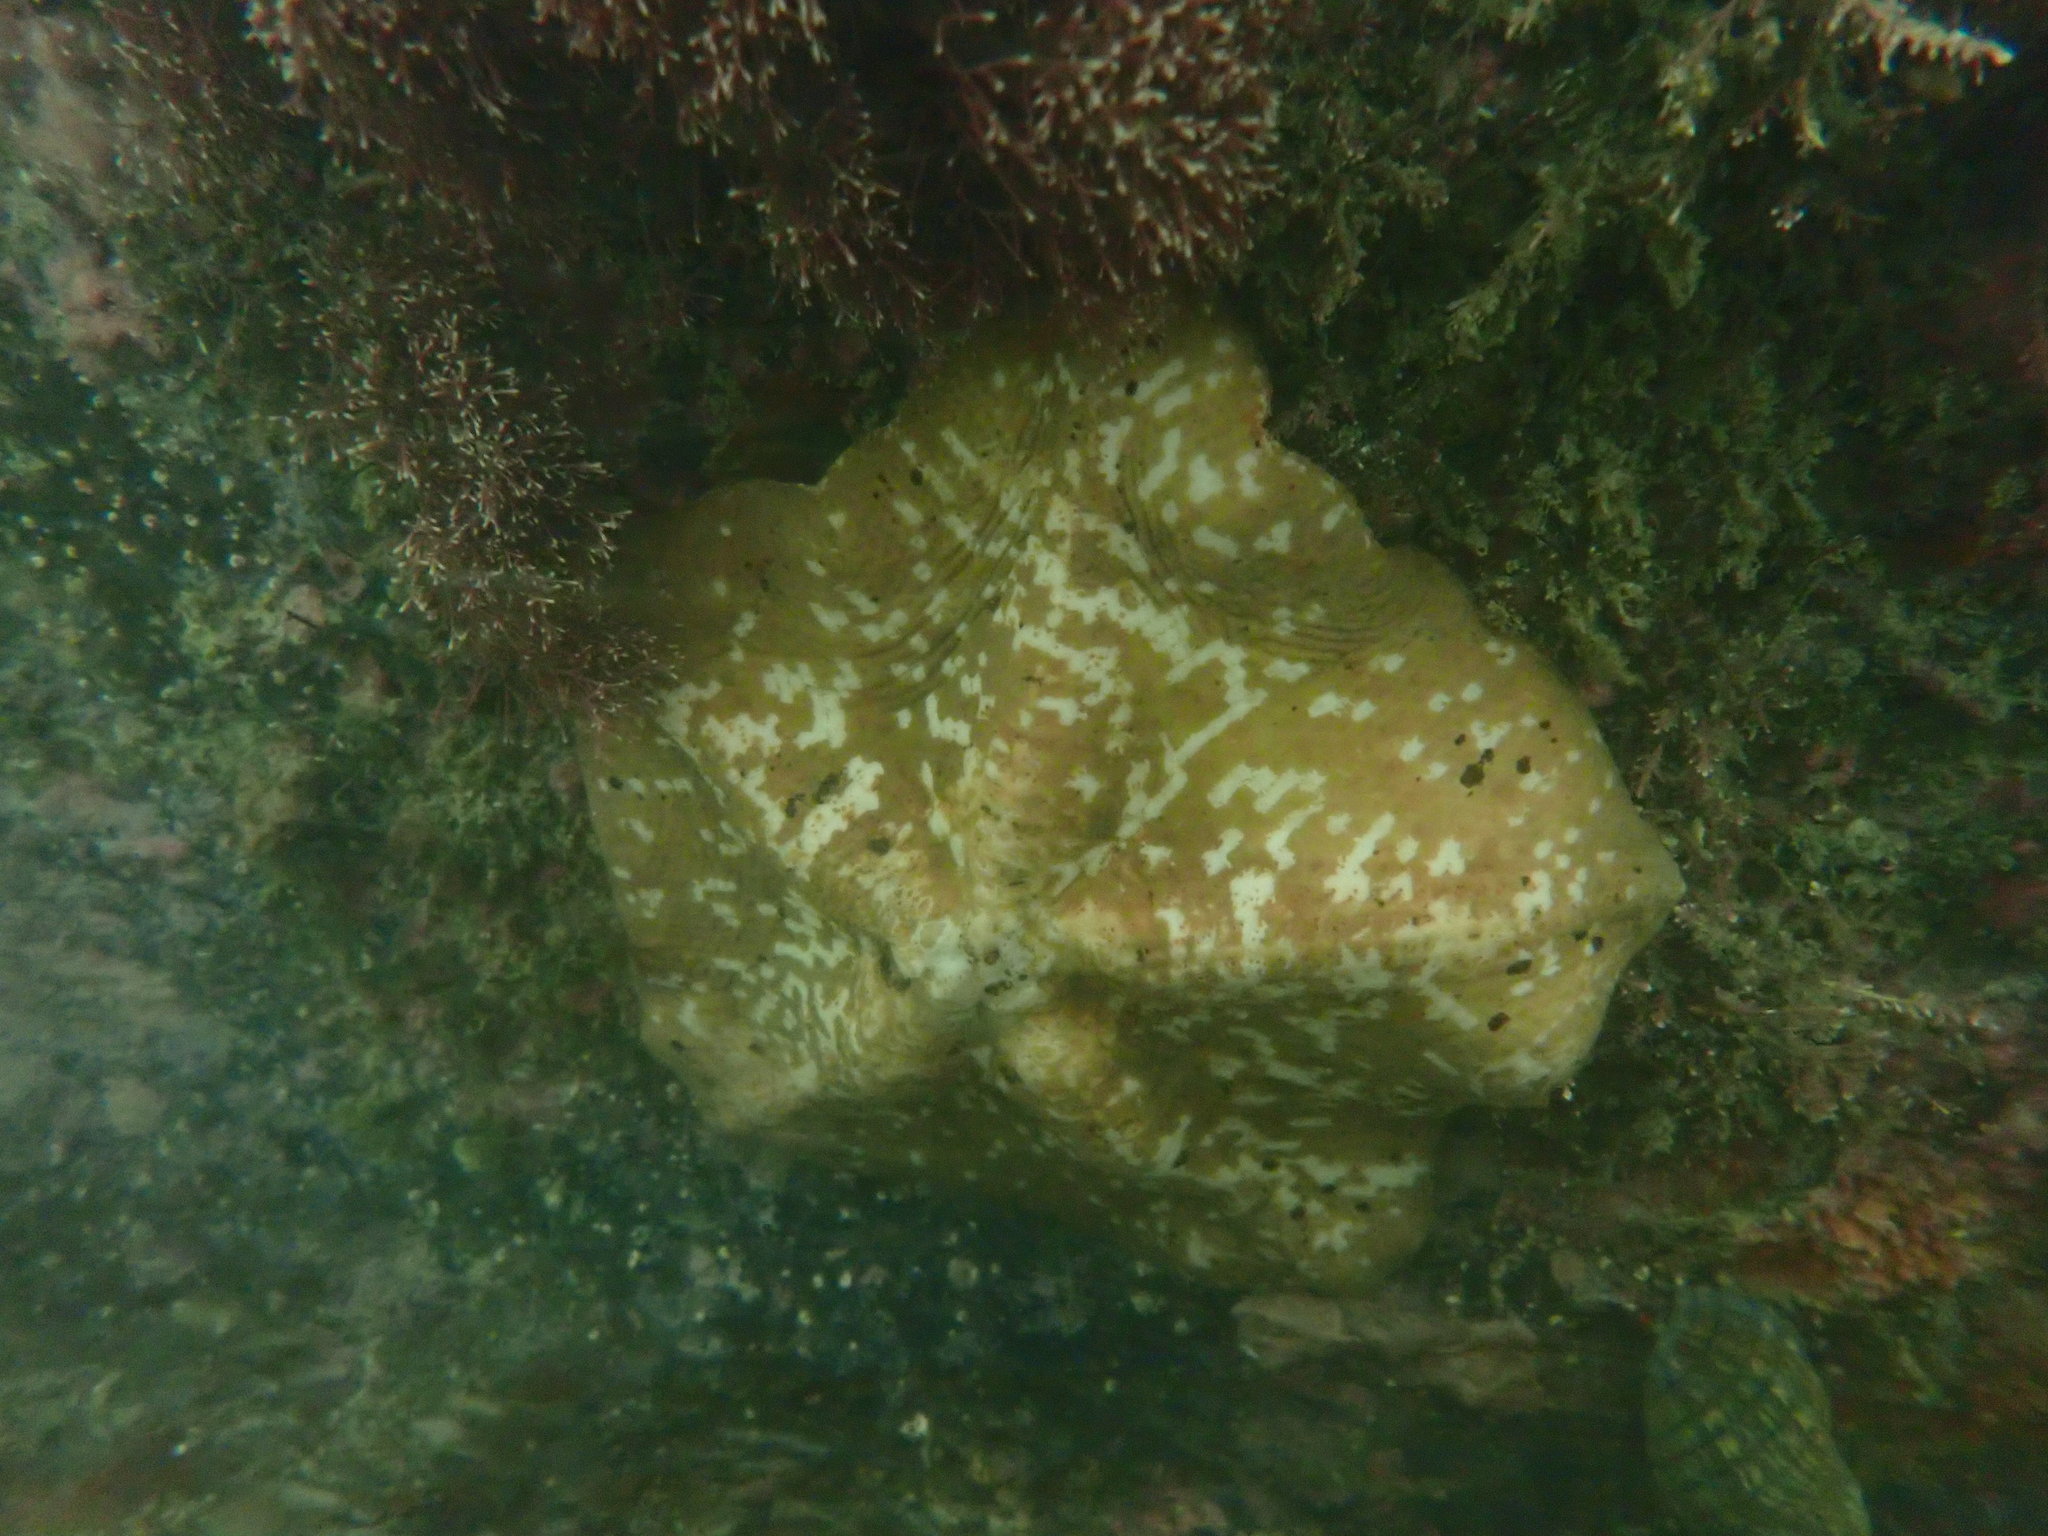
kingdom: Animalia
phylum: Echinodermata
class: Asteroidea
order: Valvatida
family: Asterinidae
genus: Stegnaster
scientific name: Stegnaster inflatus
